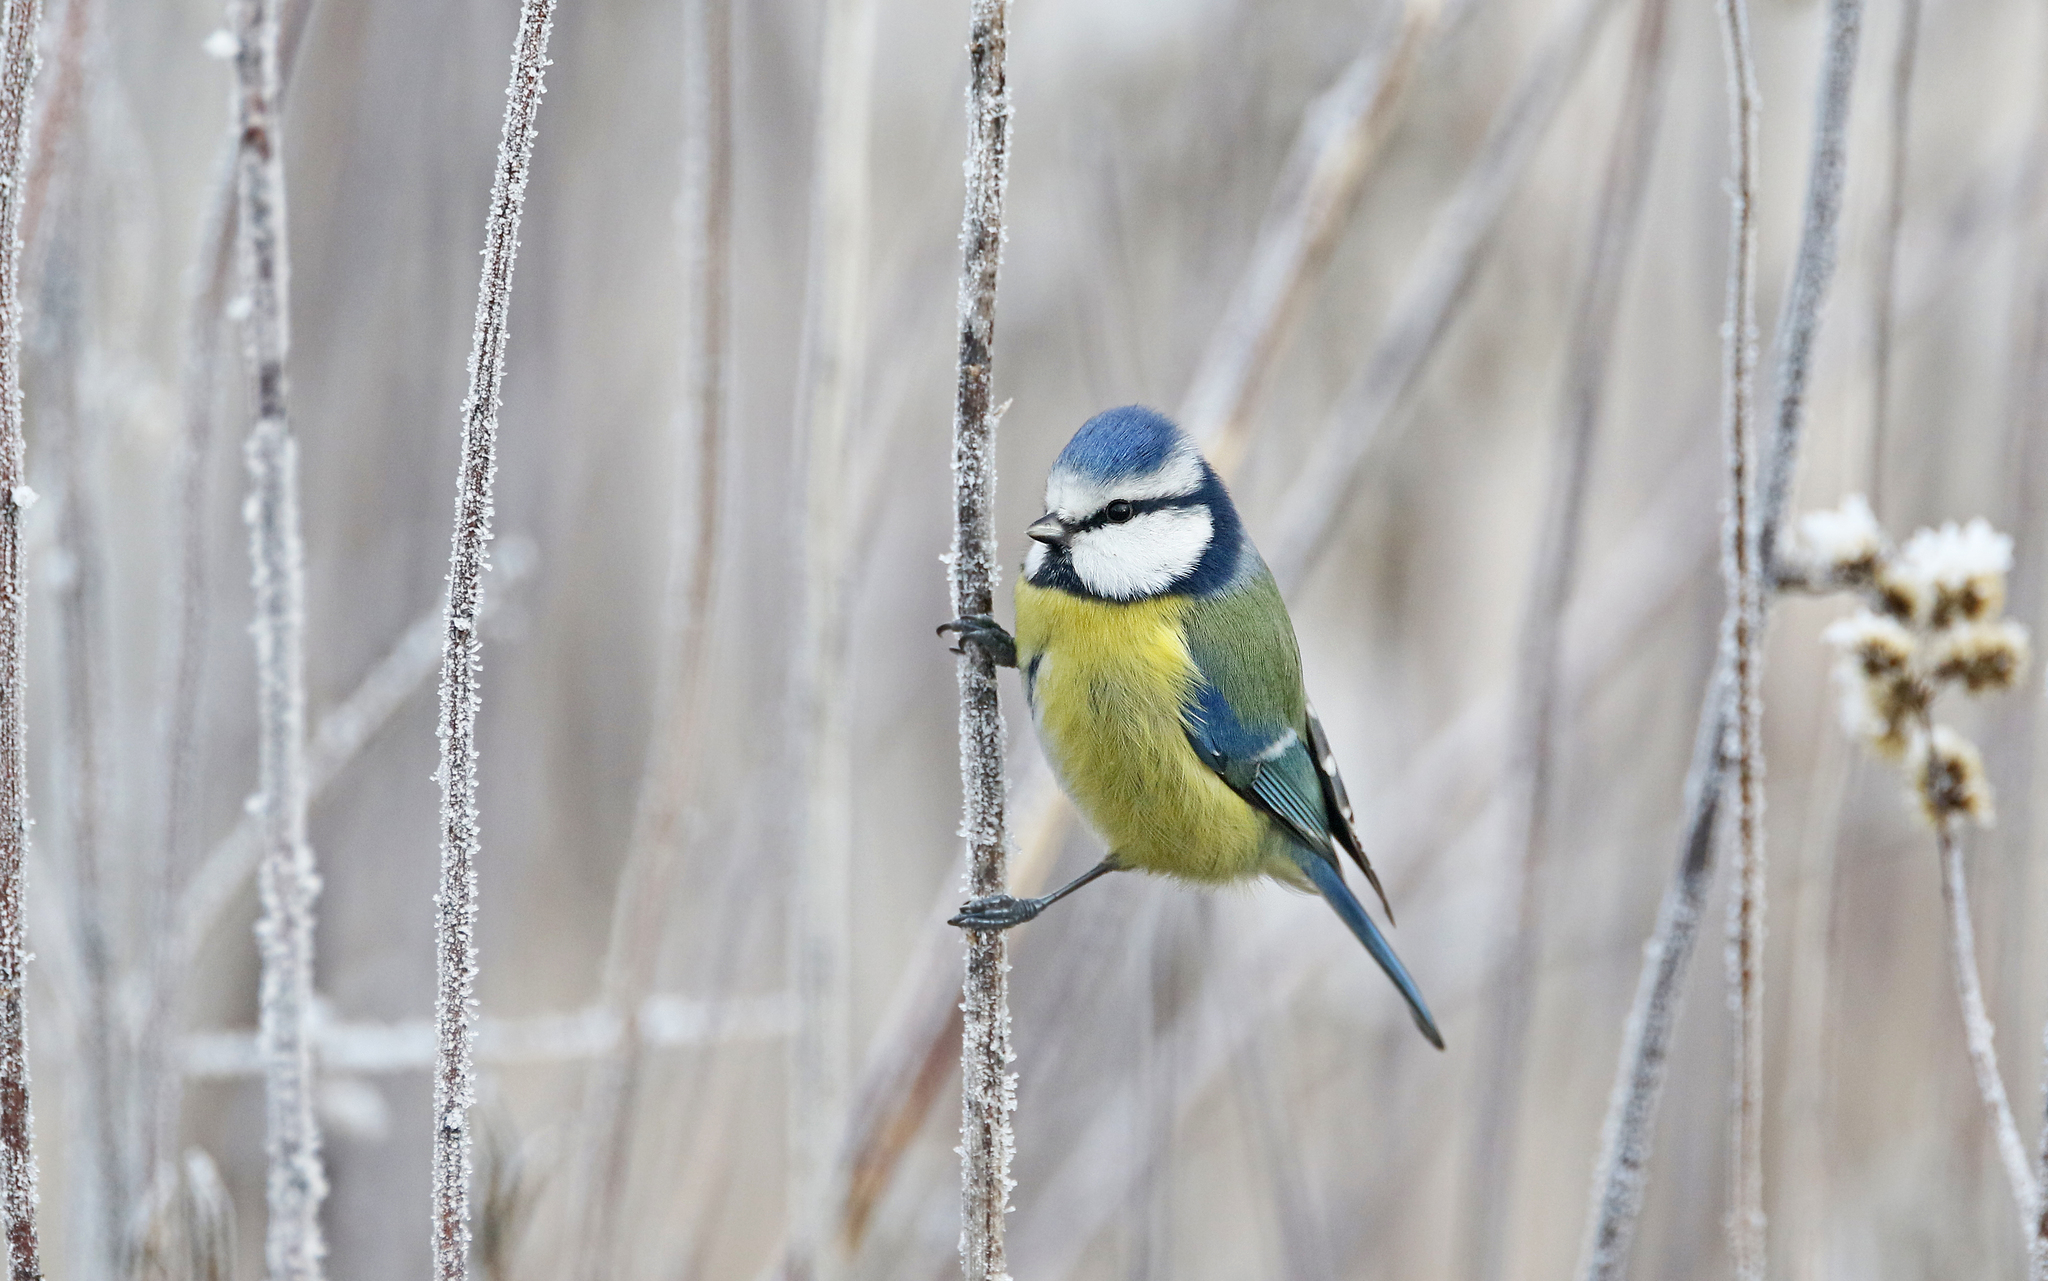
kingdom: Animalia
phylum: Chordata
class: Aves
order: Passeriformes
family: Paridae
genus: Cyanistes
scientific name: Cyanistes caeruleus
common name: Eurasian blue tit
